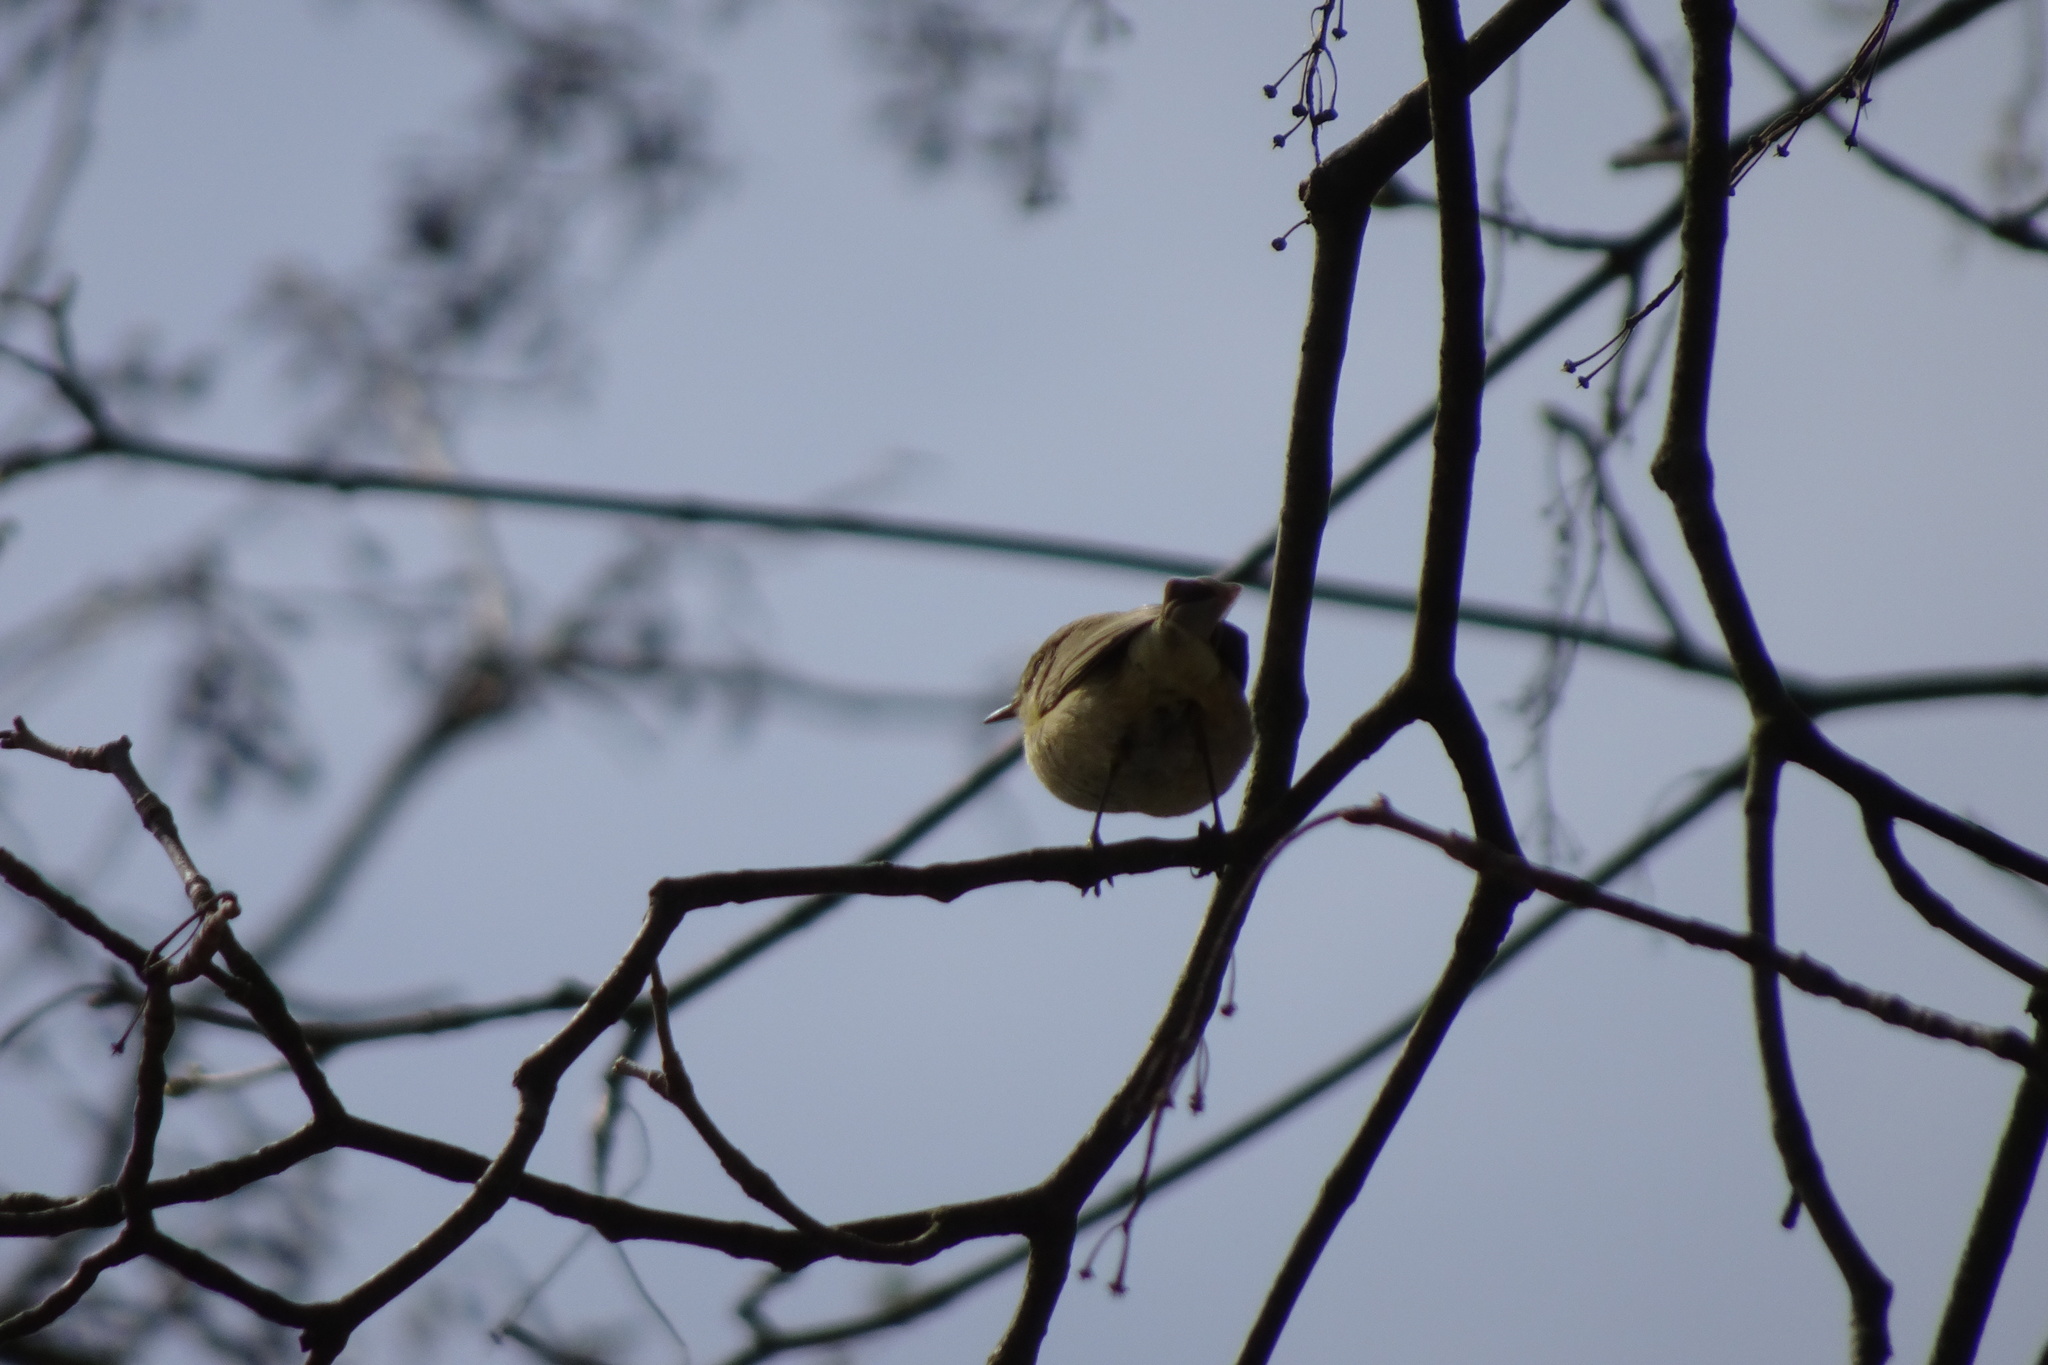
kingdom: Animalia
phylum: Chordata
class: Aves
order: Passeriformes
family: Phylloscopidae
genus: Phylloscopus
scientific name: Phylloscopus trochilus
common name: Willow warbler
